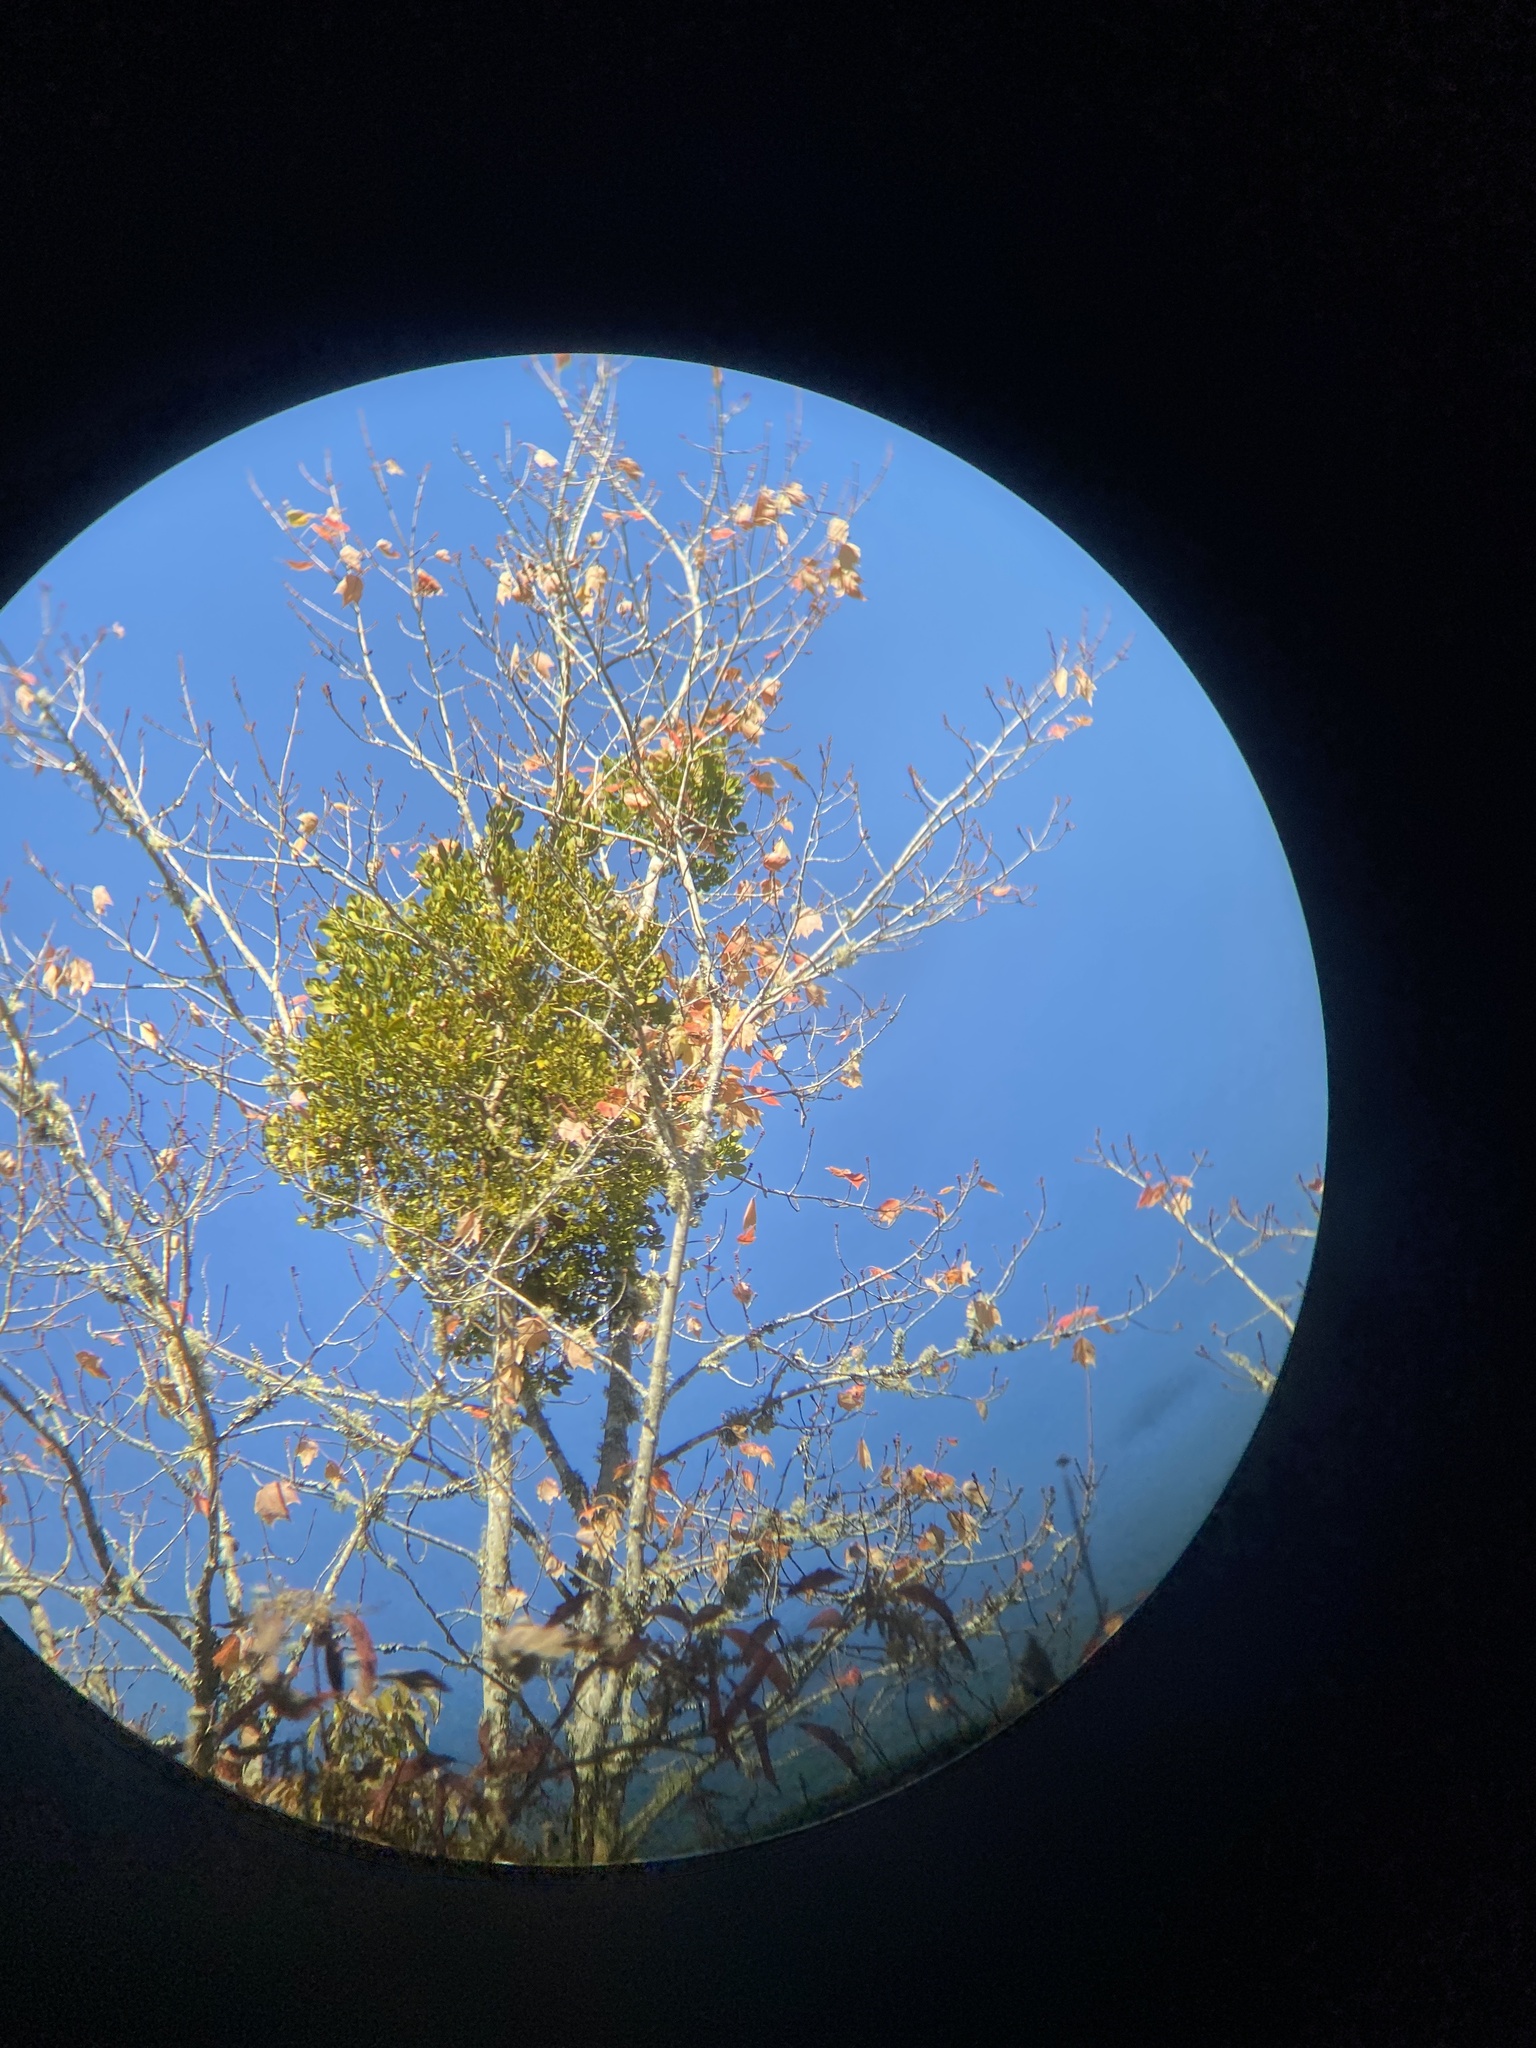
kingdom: Plantae
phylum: Tracheophyta
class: Magnoliopsida
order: Santalales
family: Viscaceae
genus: Phoradendron
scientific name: Phoradendron leucarpum
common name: Pacific mistletoe
